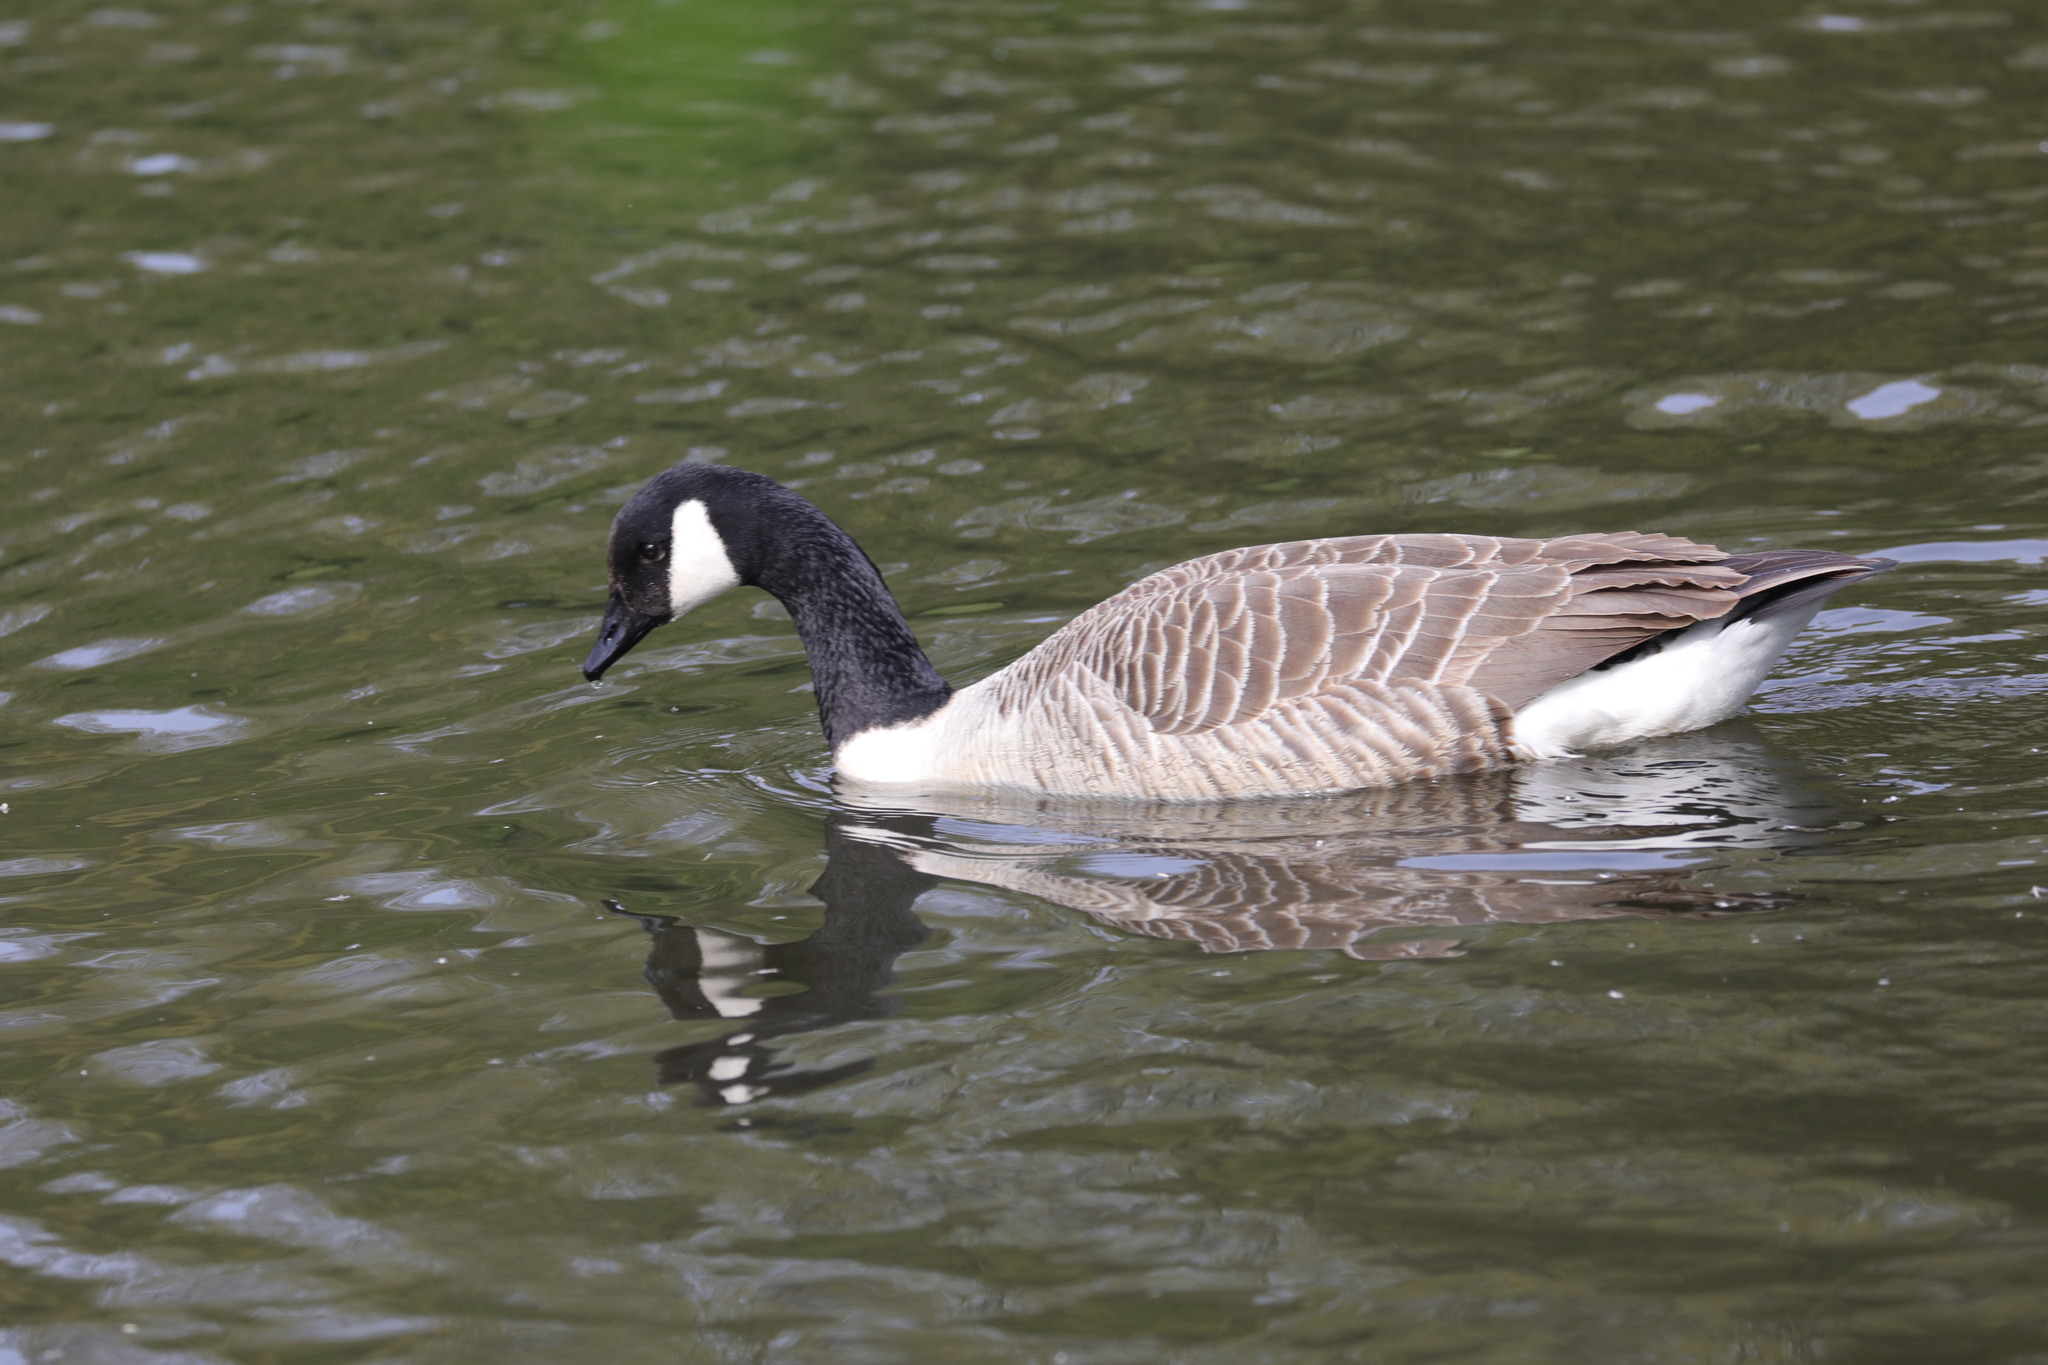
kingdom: Animalia
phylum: Chordata
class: Aves
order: Anseriformes
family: Anatidae
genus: Branta
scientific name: Branta canadensis
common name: Canada goose
